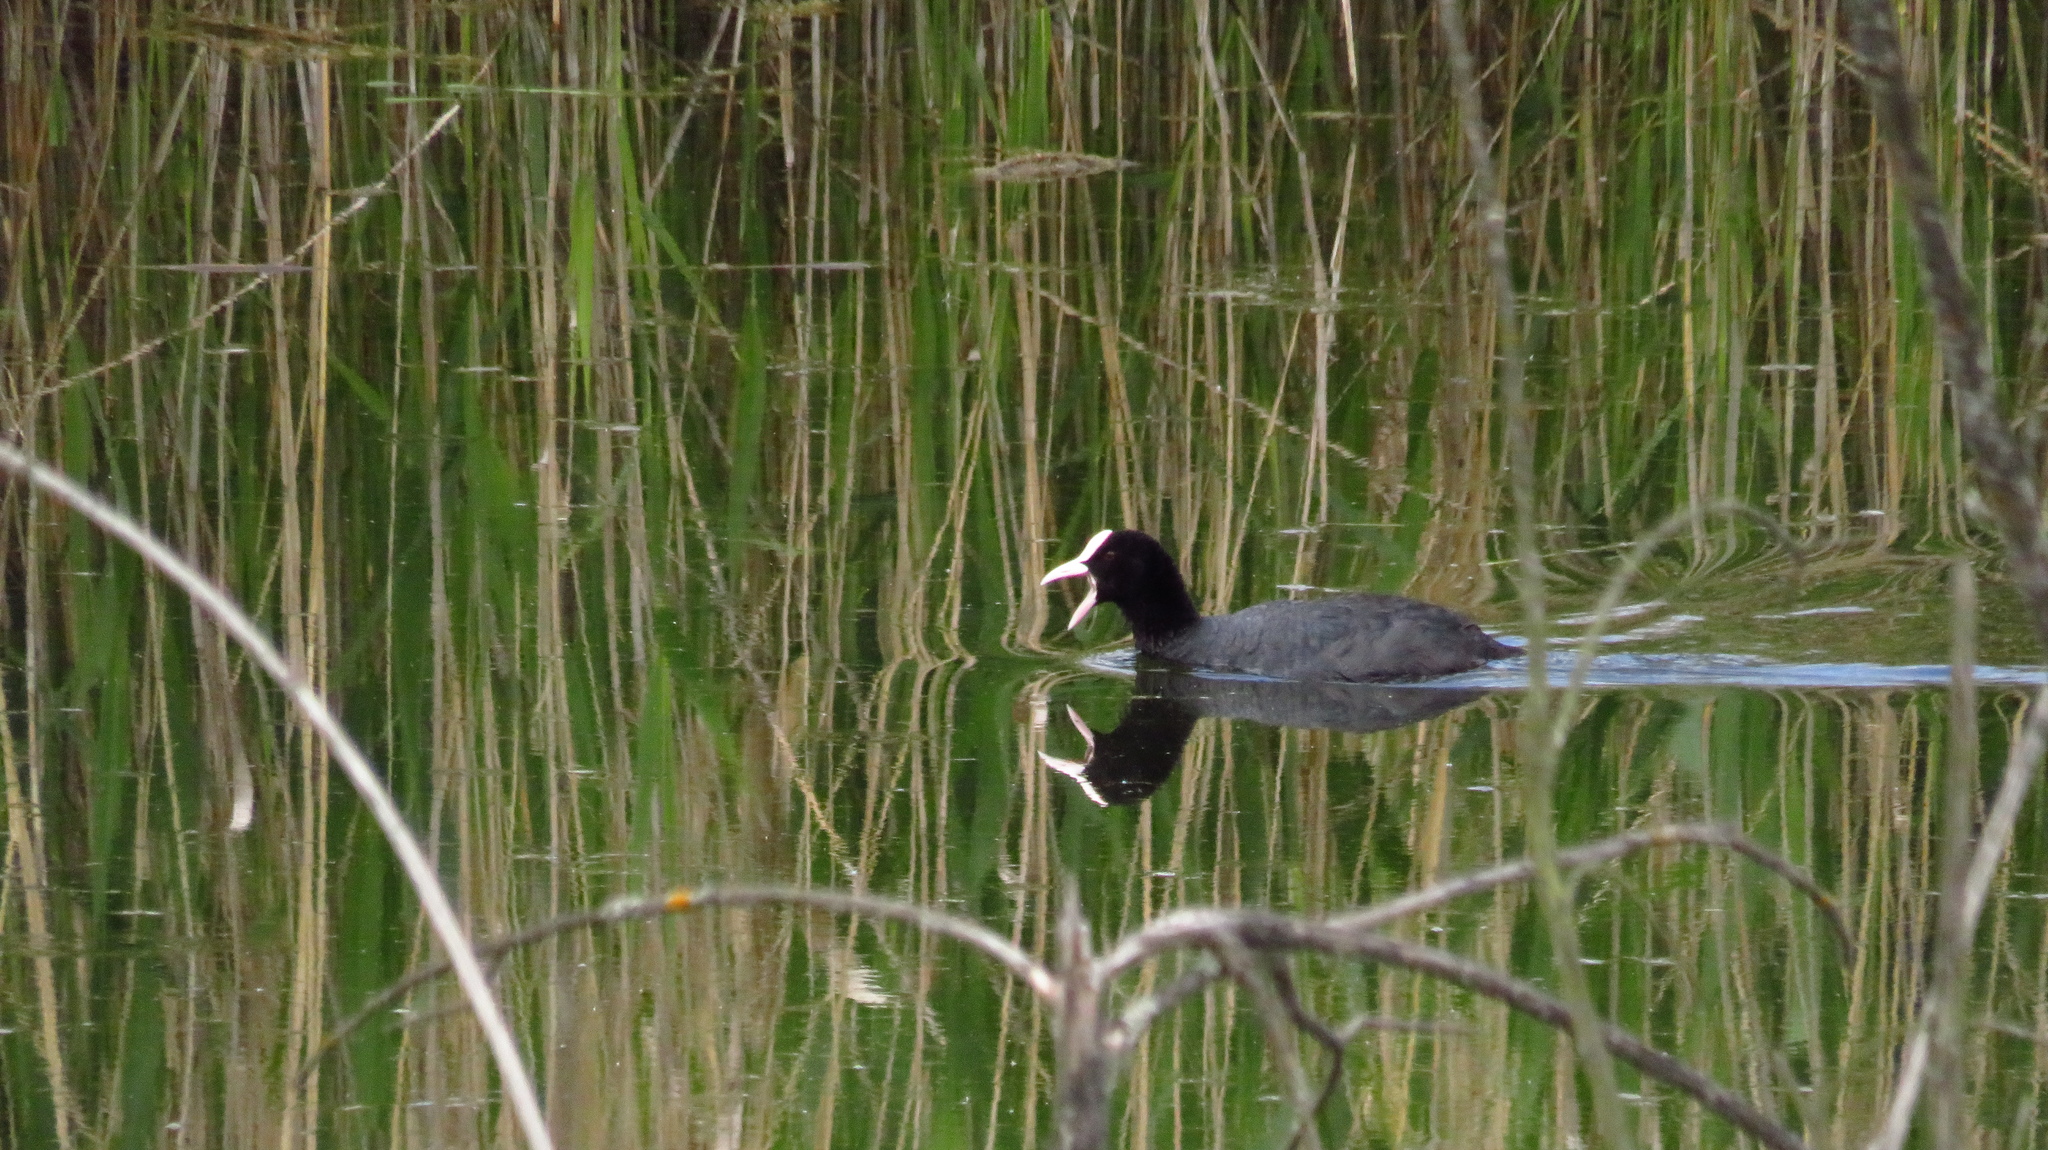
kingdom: Animalia
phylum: Chordata
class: Aves
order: Gruiformes
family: Rallidae
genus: Fulica
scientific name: Fulica atra
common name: Eurasian coot
